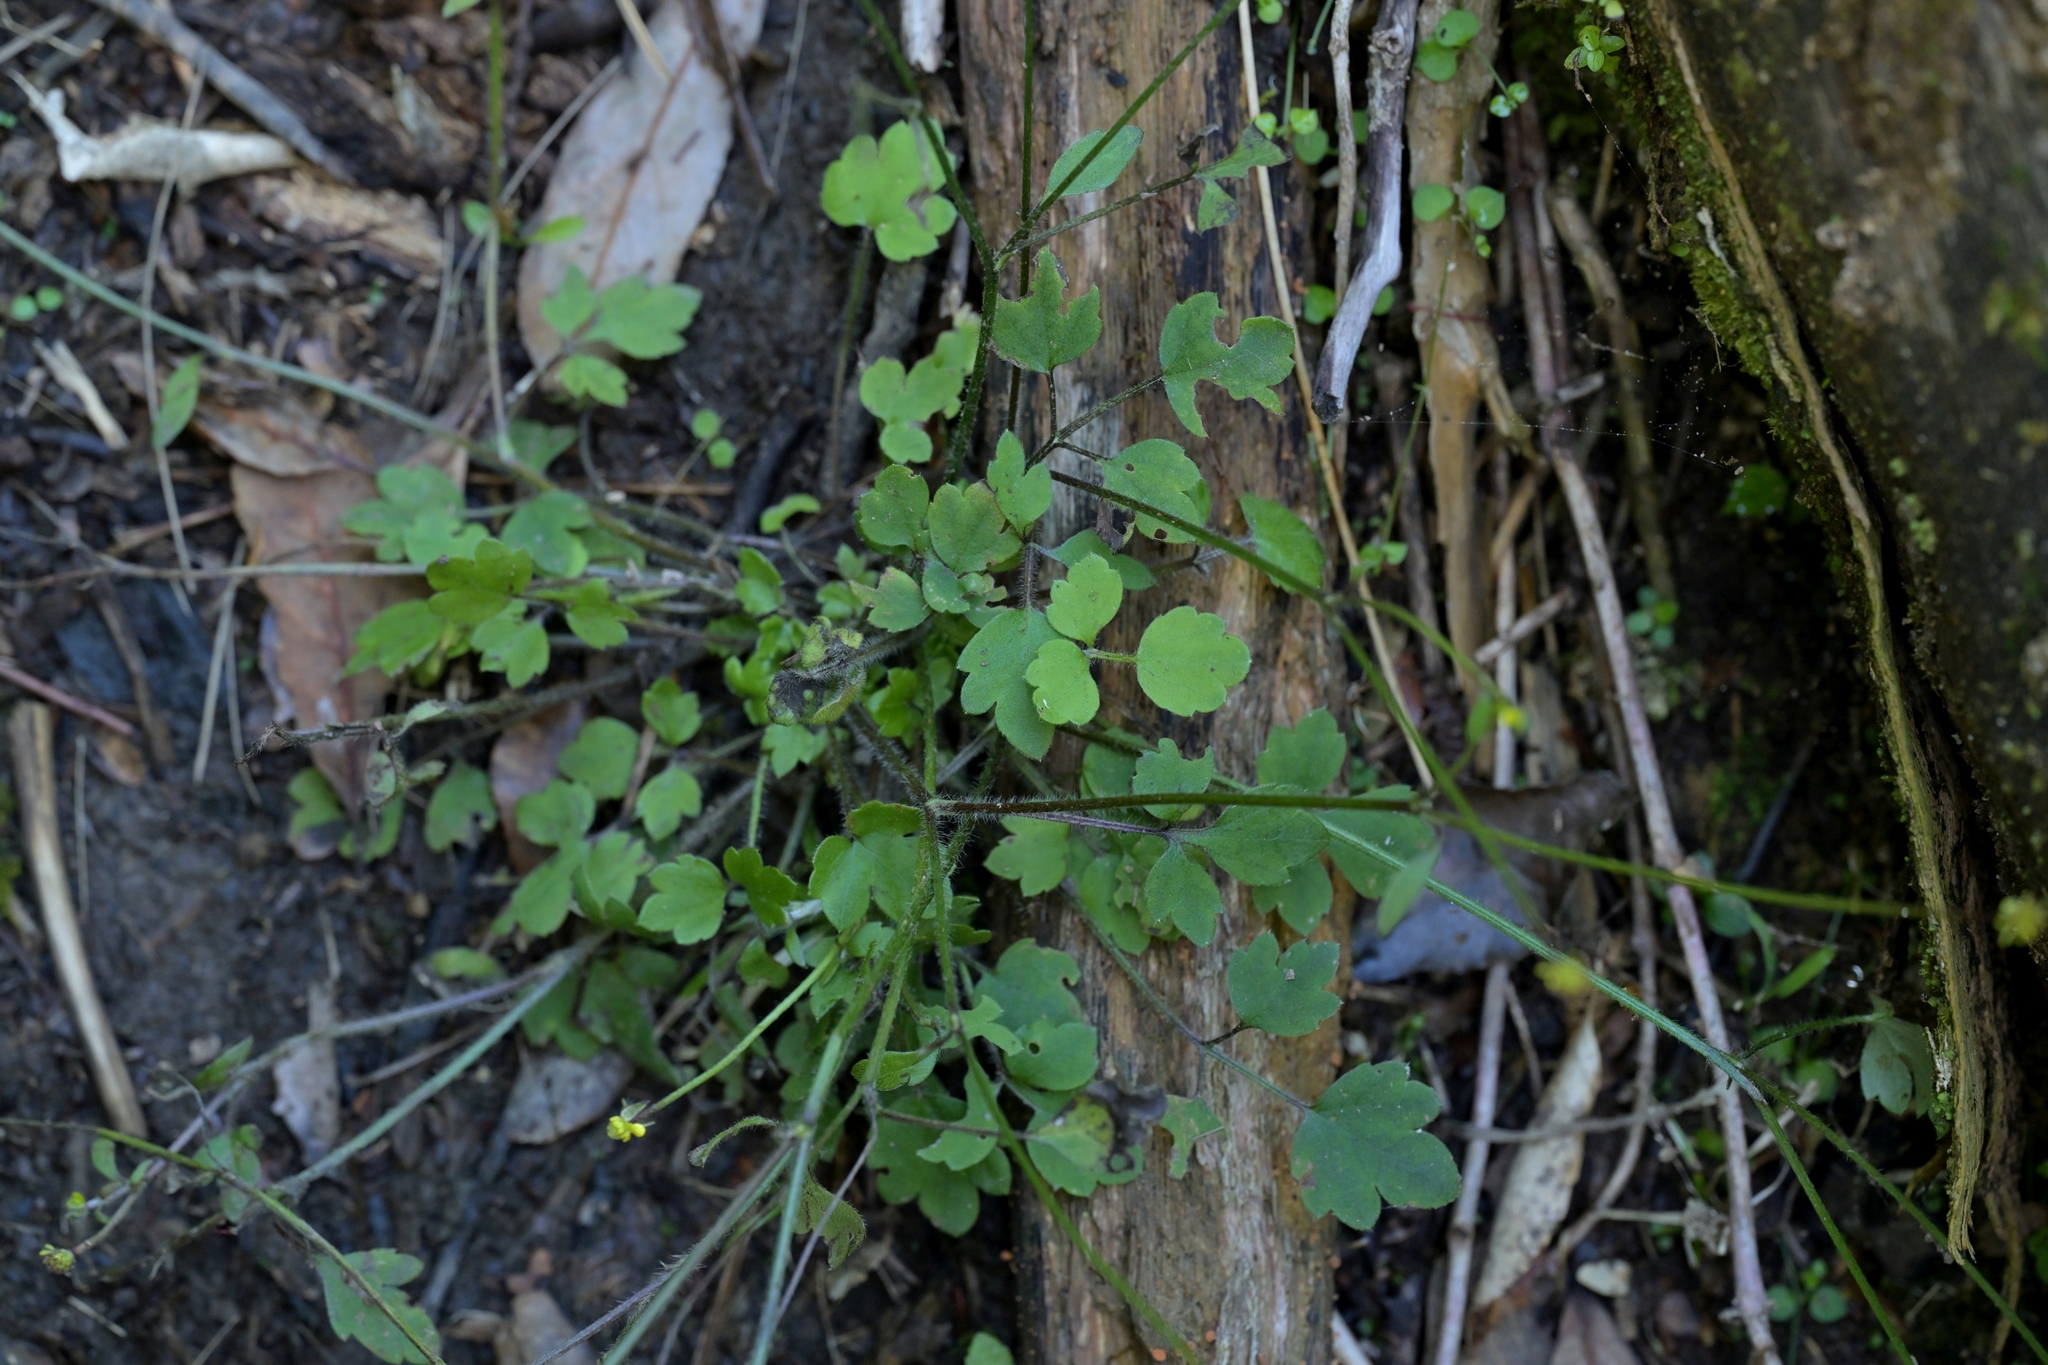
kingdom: Plantae
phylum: Tracheophyta
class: Magnoliopsida
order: Ranunculales
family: Ranunculaceae
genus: Ranunculus
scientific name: Ranunculus reflexus
